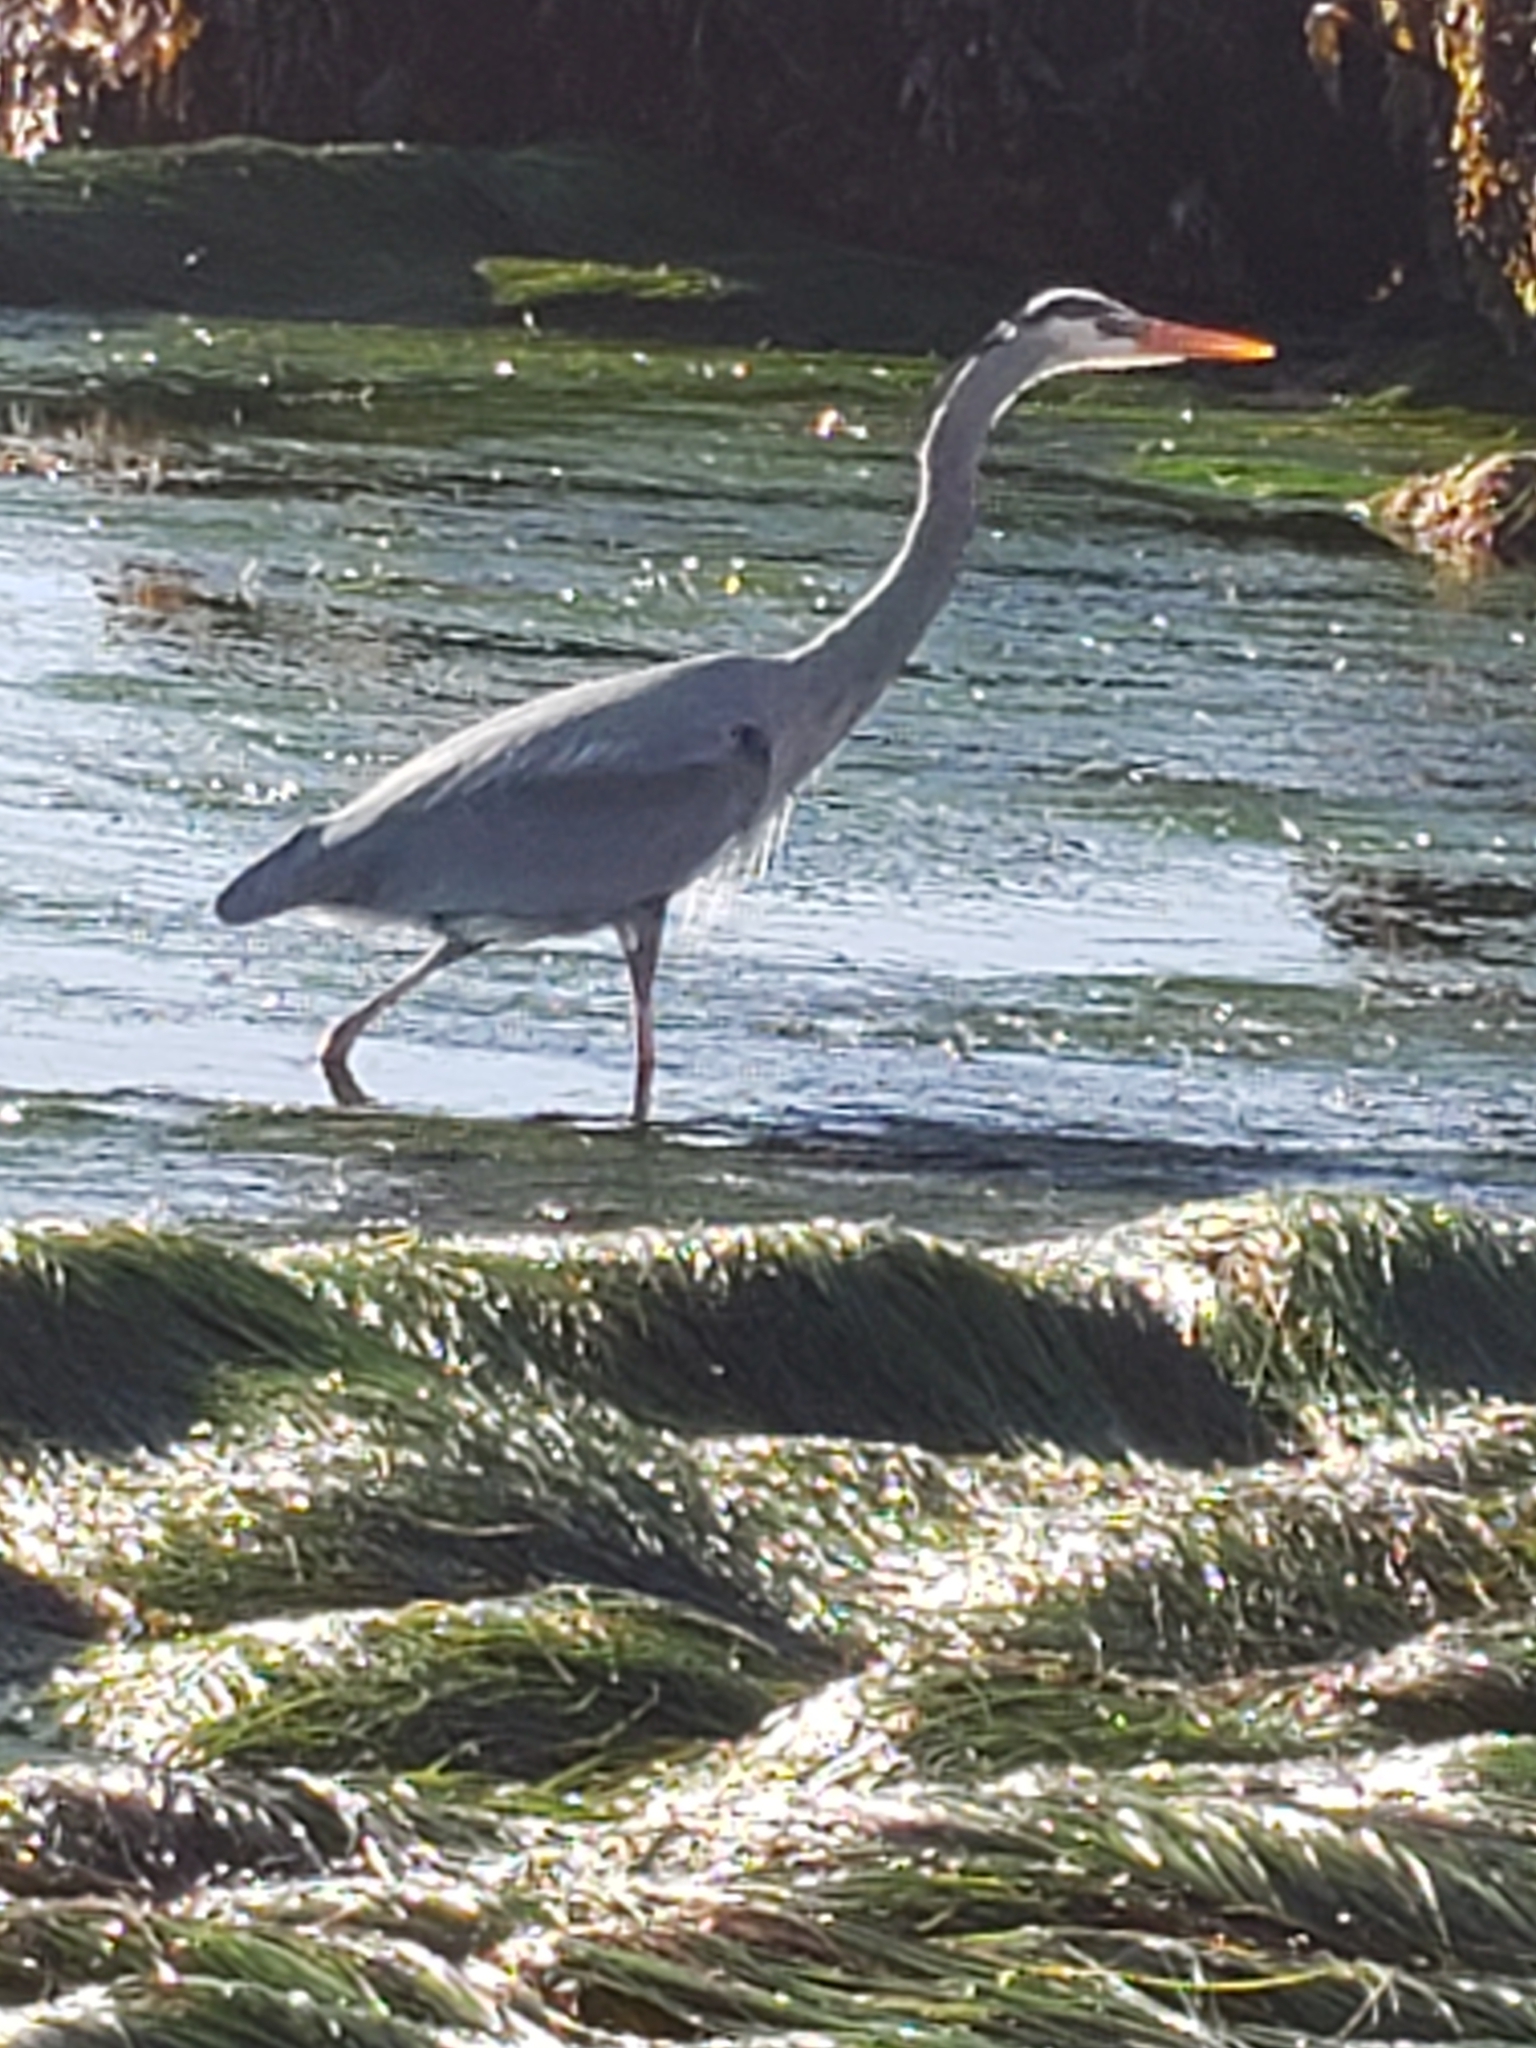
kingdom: Animalia
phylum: Chordata
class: Aves
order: Pelecaniformes
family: Ardeidae
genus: Ardea
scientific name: Ardea herodias
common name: Great blue heron
